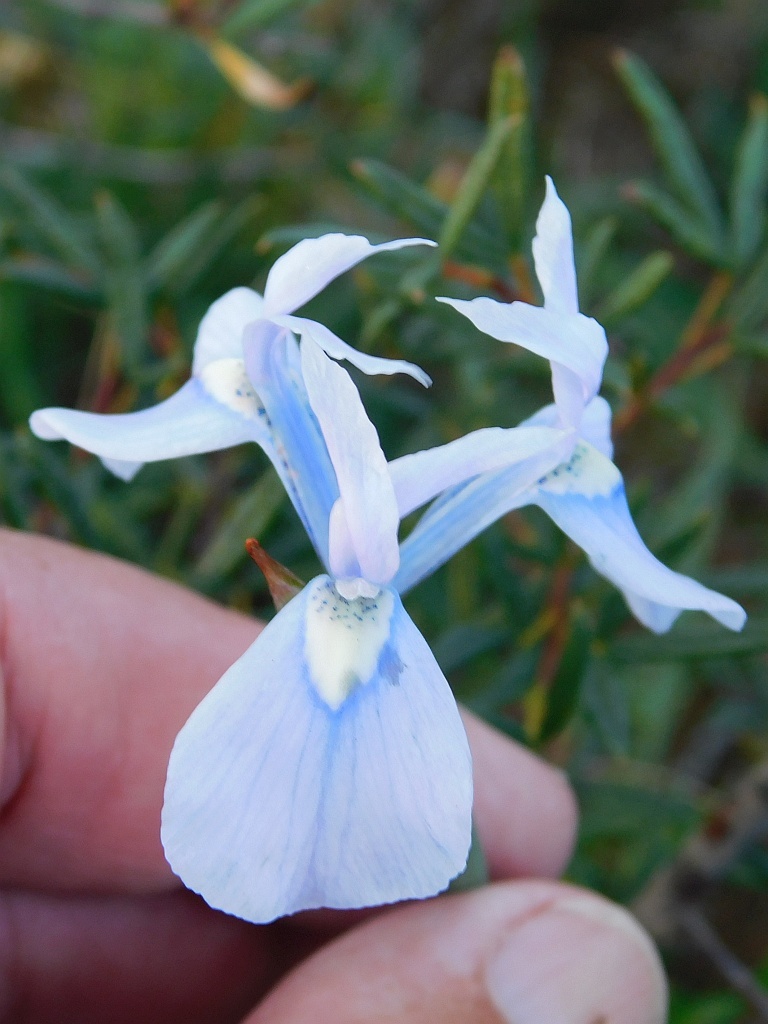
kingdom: Plantae
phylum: Tracheophyta
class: Liliopsida
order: Asparagales
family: Iridaceae
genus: Moraea
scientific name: Moraea tripetala
